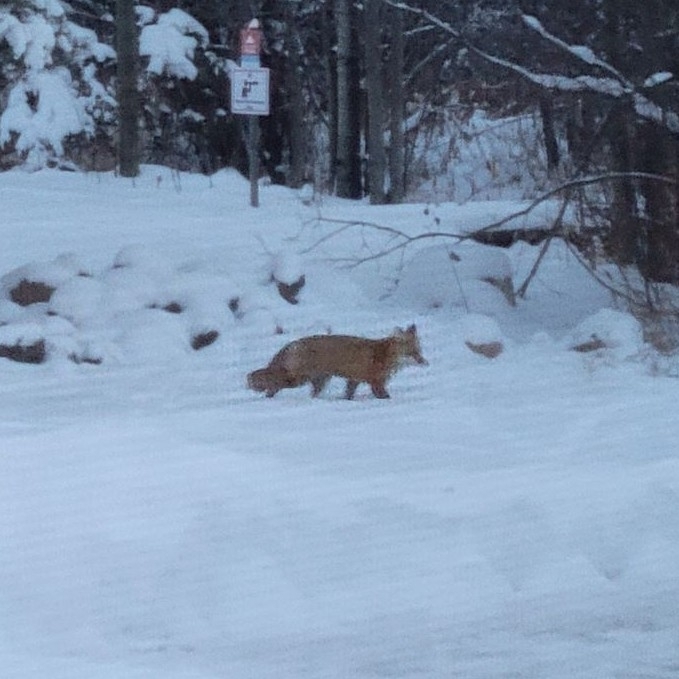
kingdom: Animalia
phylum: Chordata
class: Mammalia
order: Carnivora
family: Canidae
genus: Vulpes
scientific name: Vulpes vulpes
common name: Red fox
